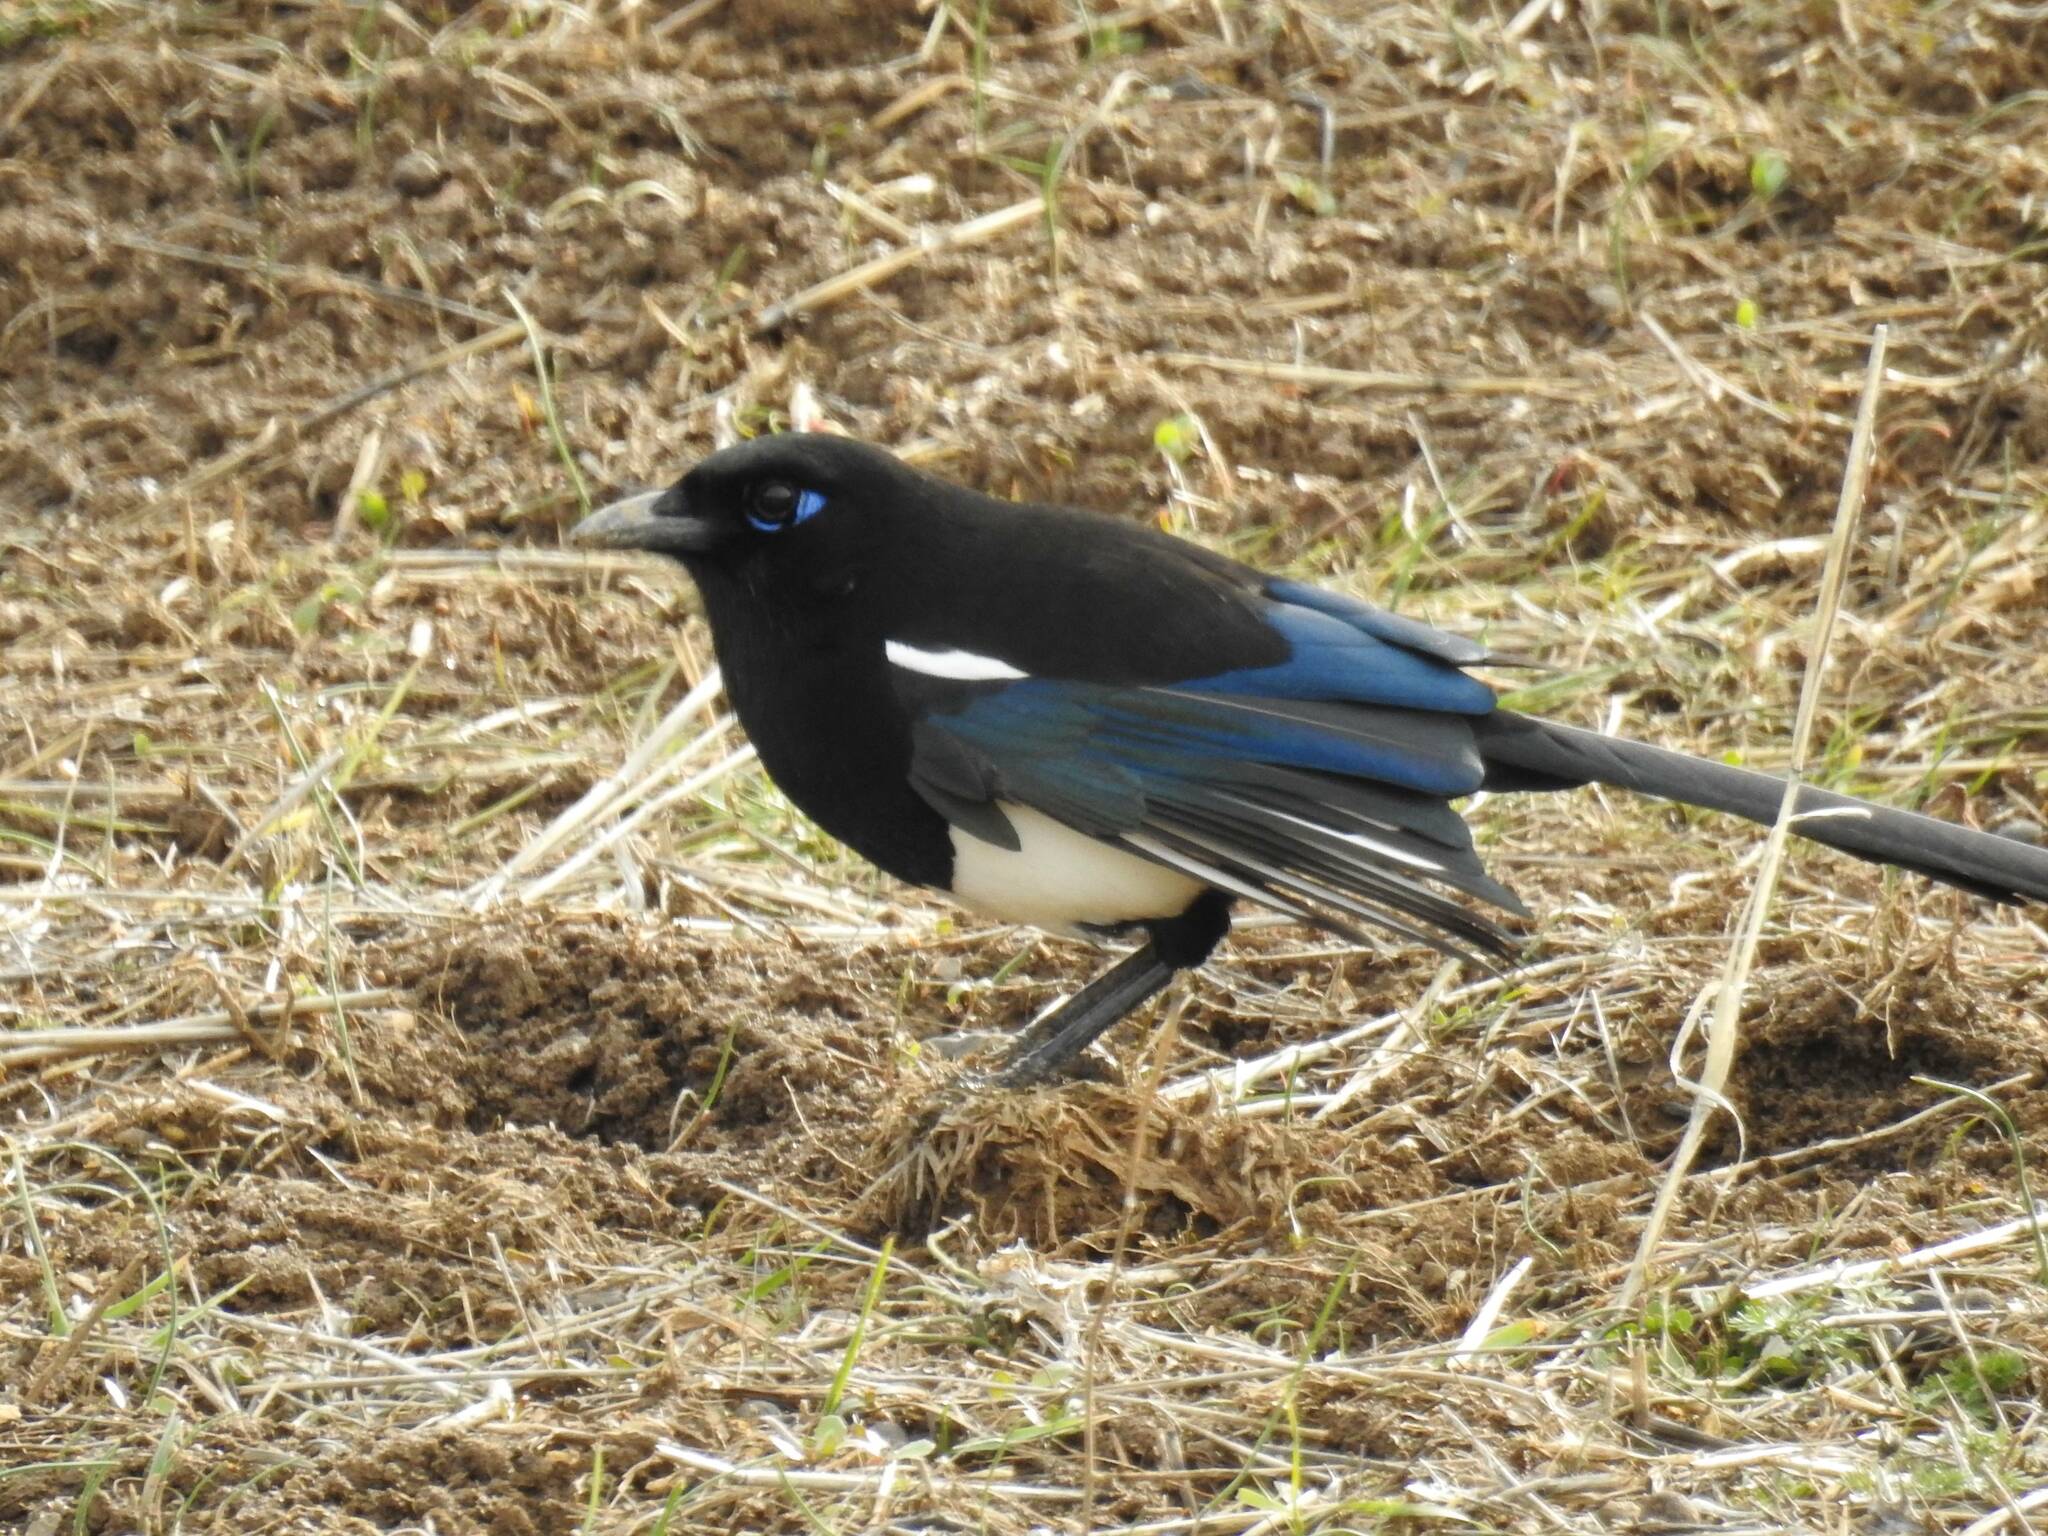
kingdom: Animalia
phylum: Chordata
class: Aves
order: Passeriformes
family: Corvidae
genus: Pica
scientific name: Pica mauritanica
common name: Maghreb magpie
